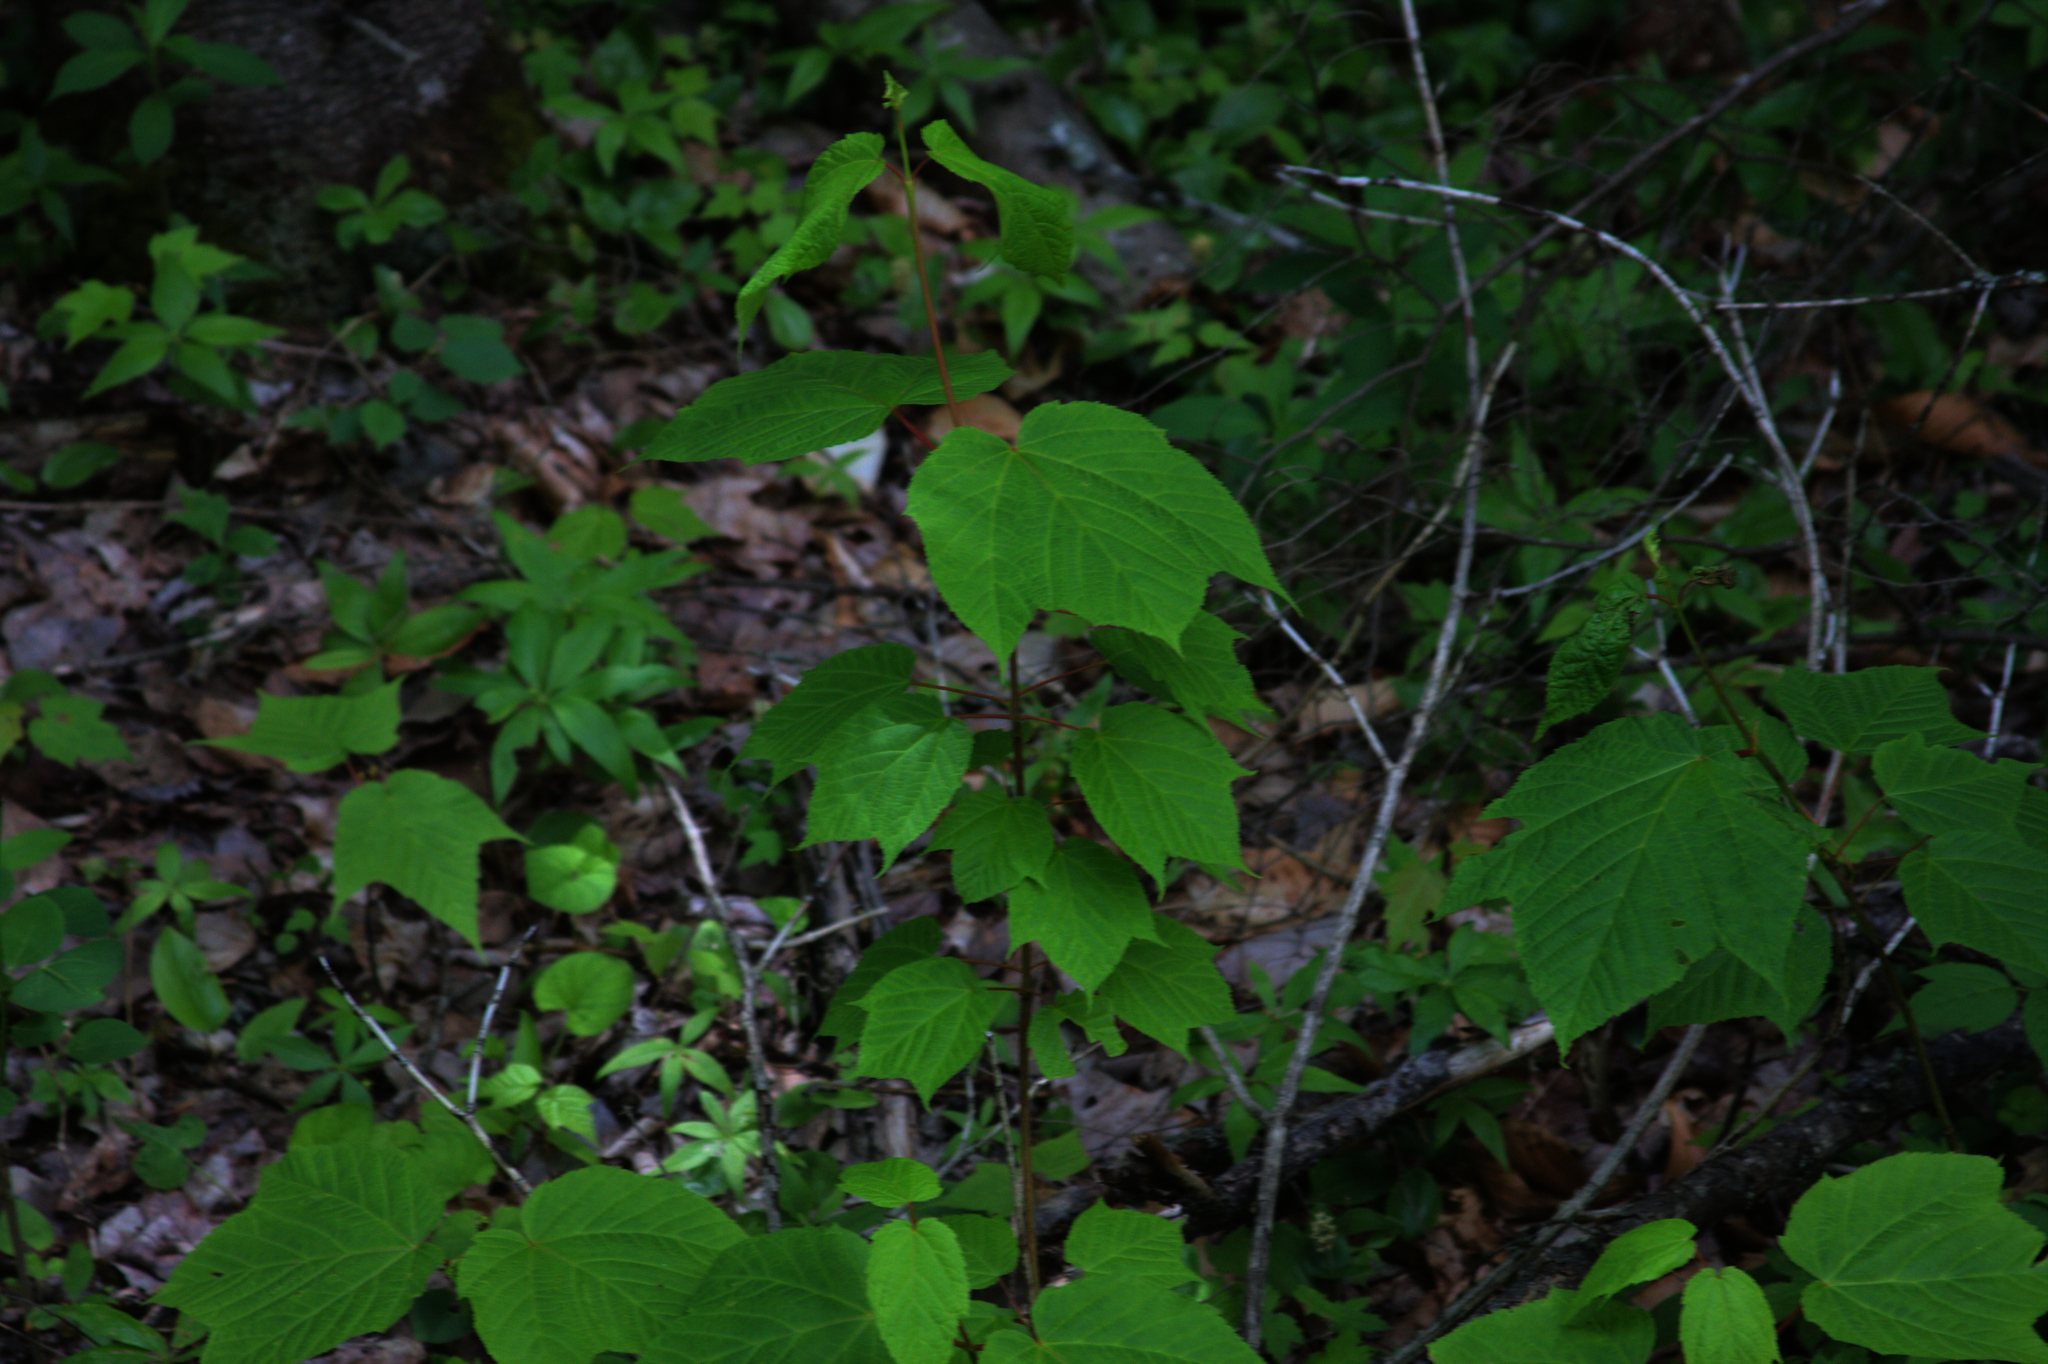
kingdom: Plantae
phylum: Tracheophyta
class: Magnoliopsida
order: Sapindales
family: Sapindaceae
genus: Acer
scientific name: Acer pensylvanicum
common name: Moosewood
